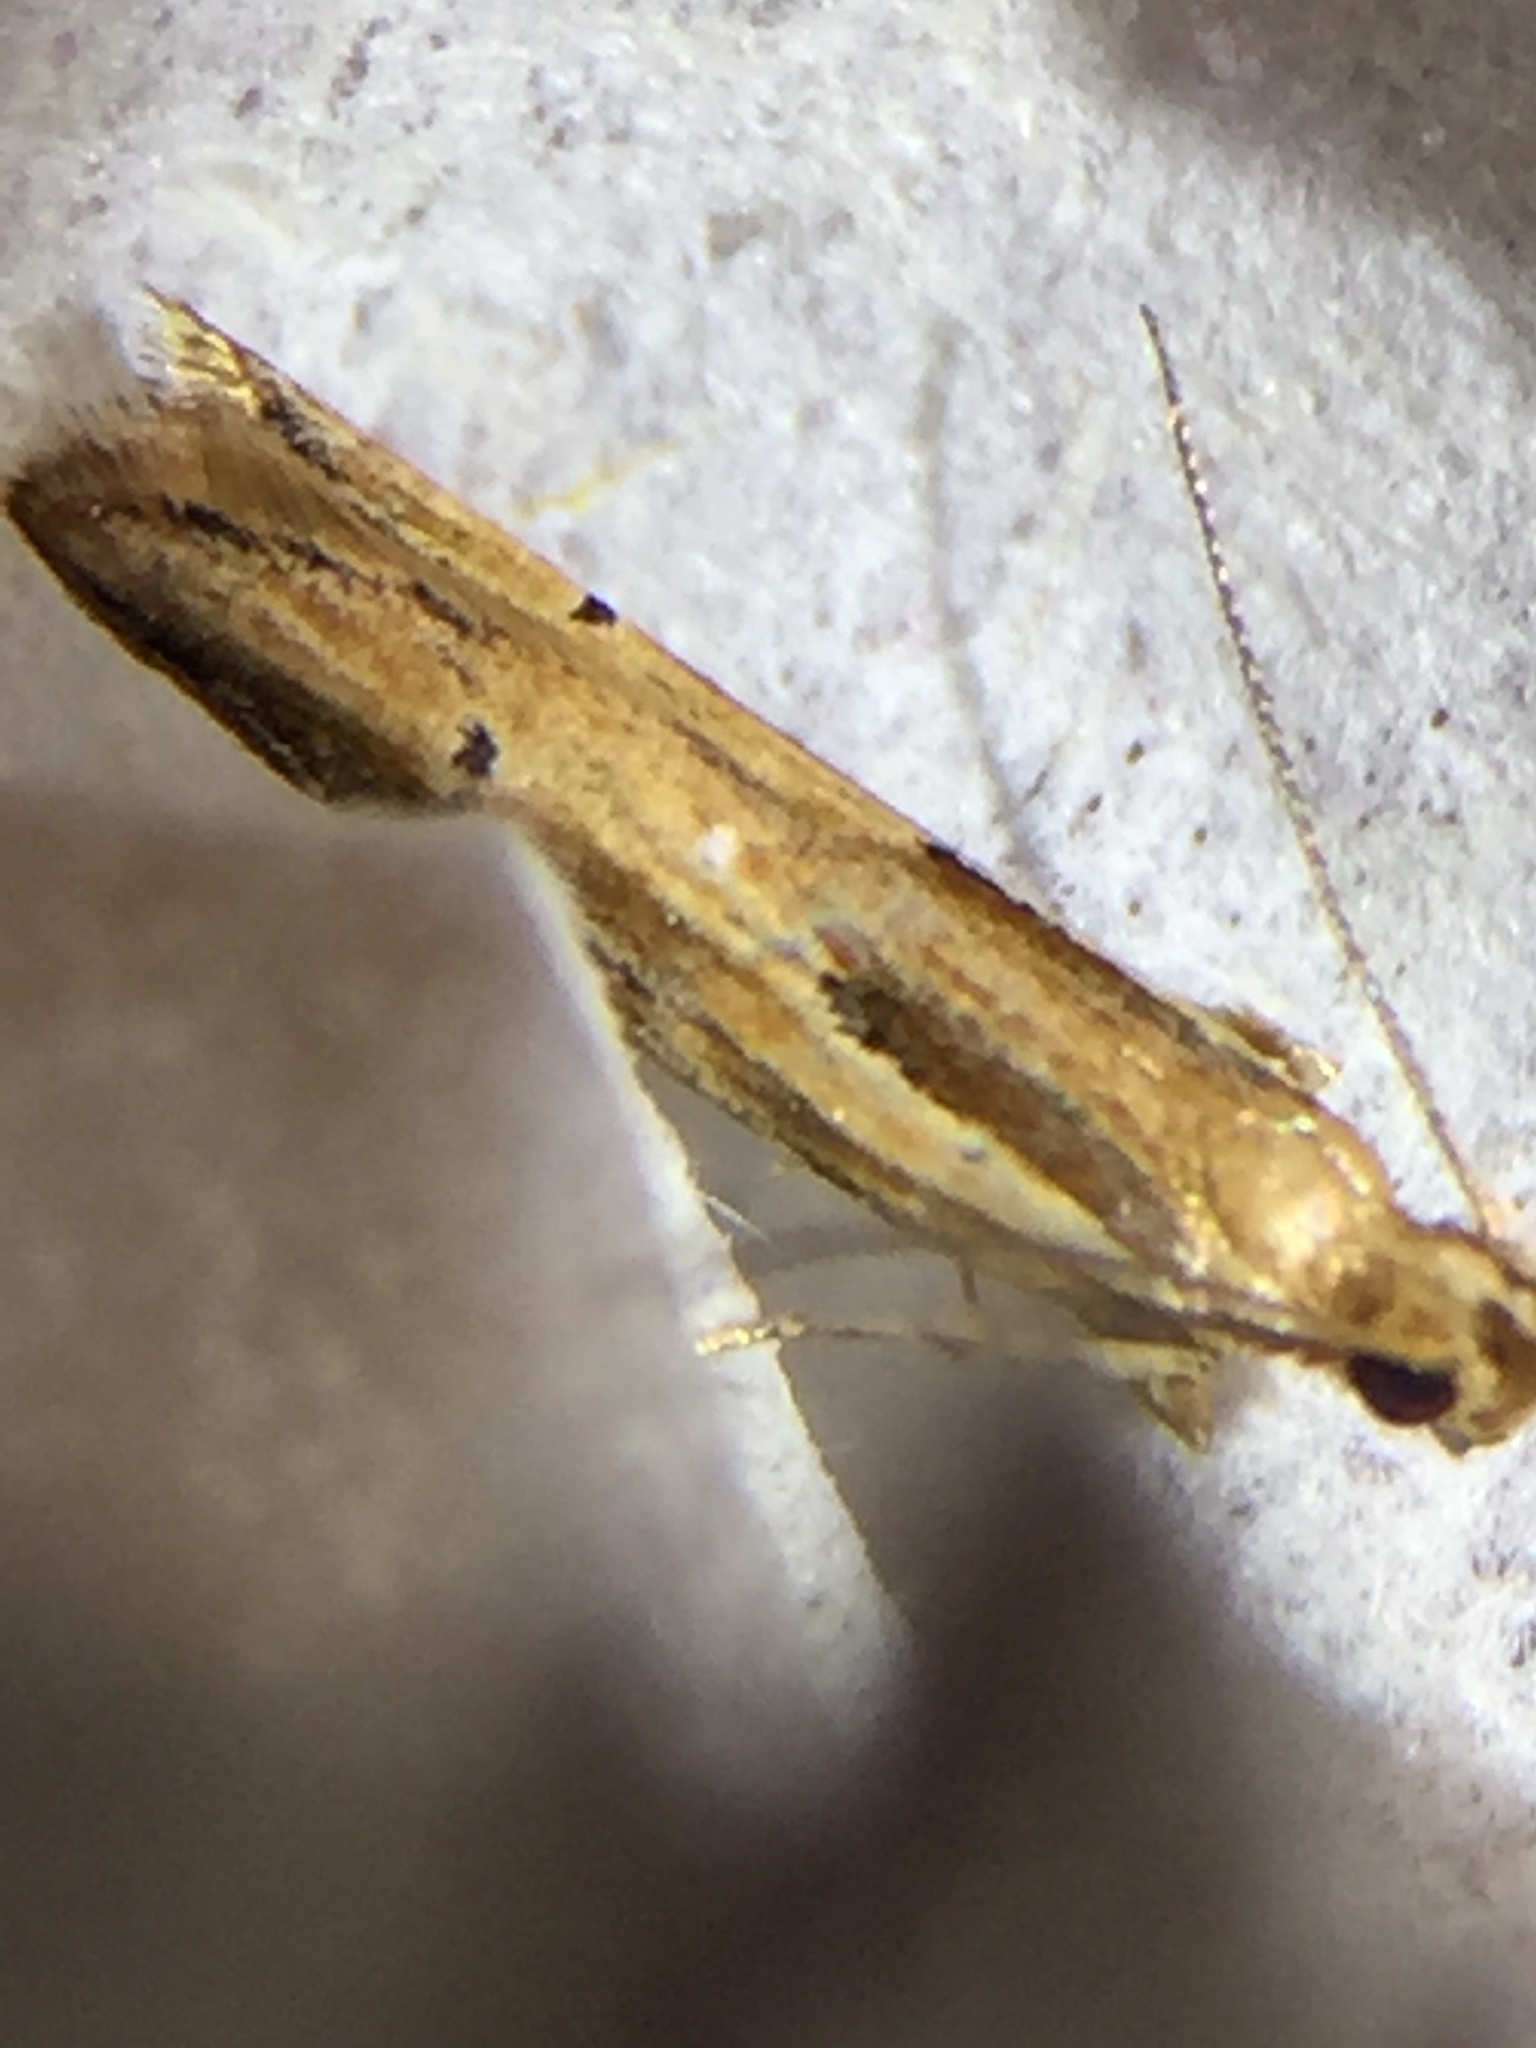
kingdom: Animalia
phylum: Arthropoda
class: Insecta
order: Lepidoptera
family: Depressariidae
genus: Eutorna
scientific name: Eutorna symmorpha
